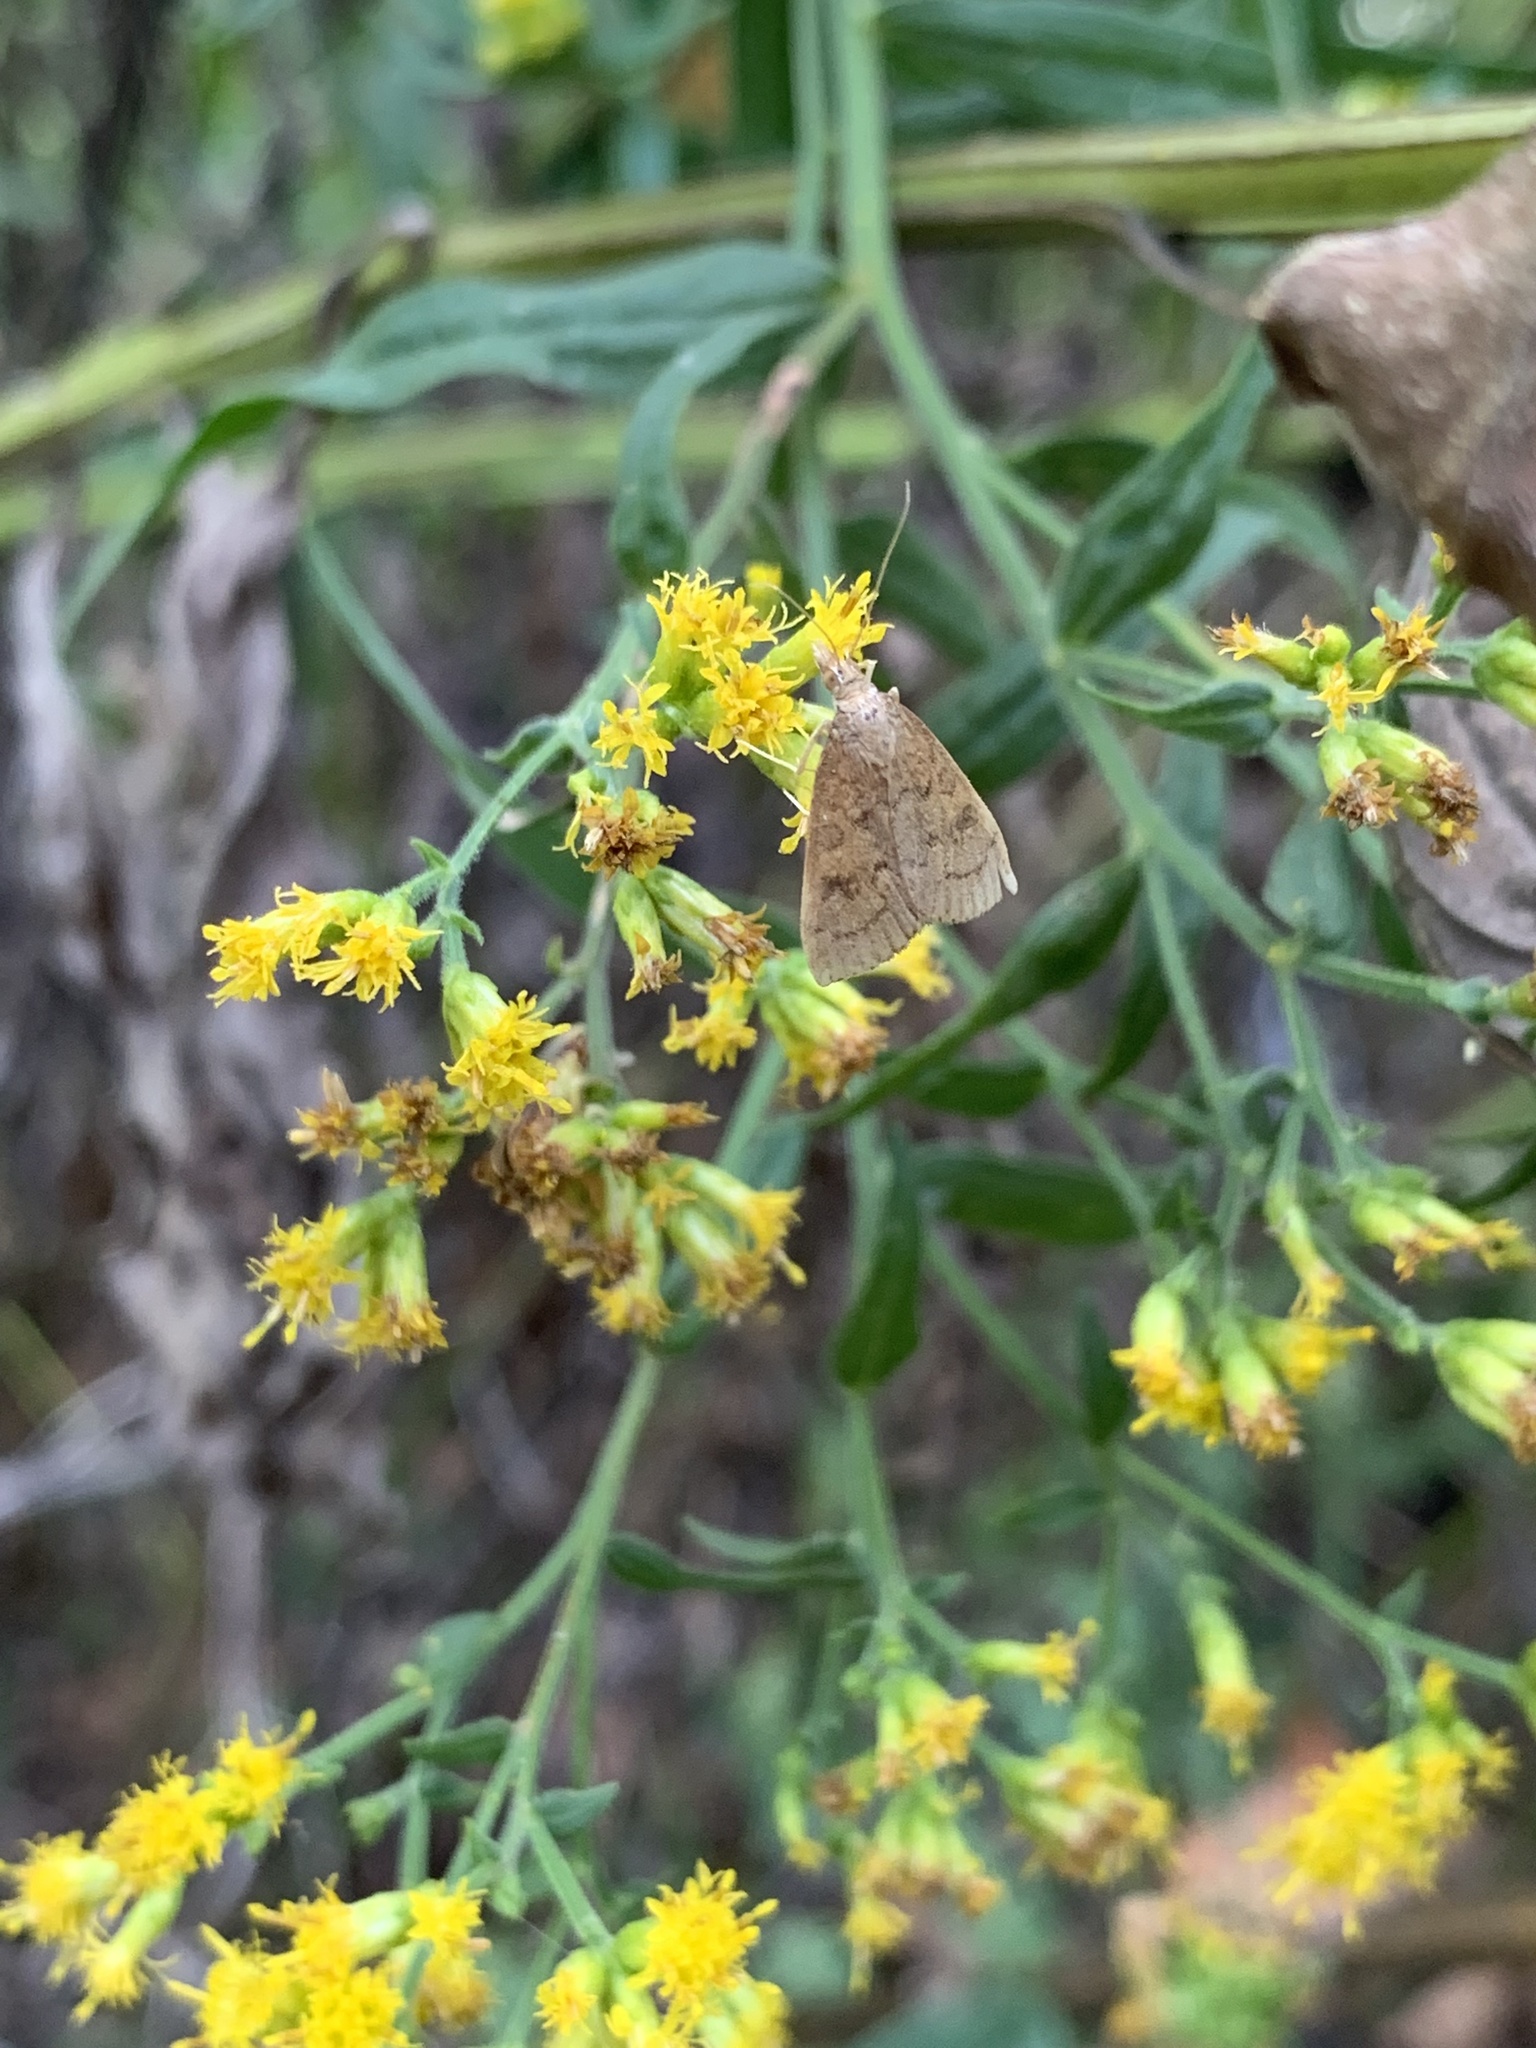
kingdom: Animalia
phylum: Arthropoda
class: Insecta
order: Lepidoptera
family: Crambidae
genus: Udea
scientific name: Udea rubigalis
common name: Celery leaftier moth
